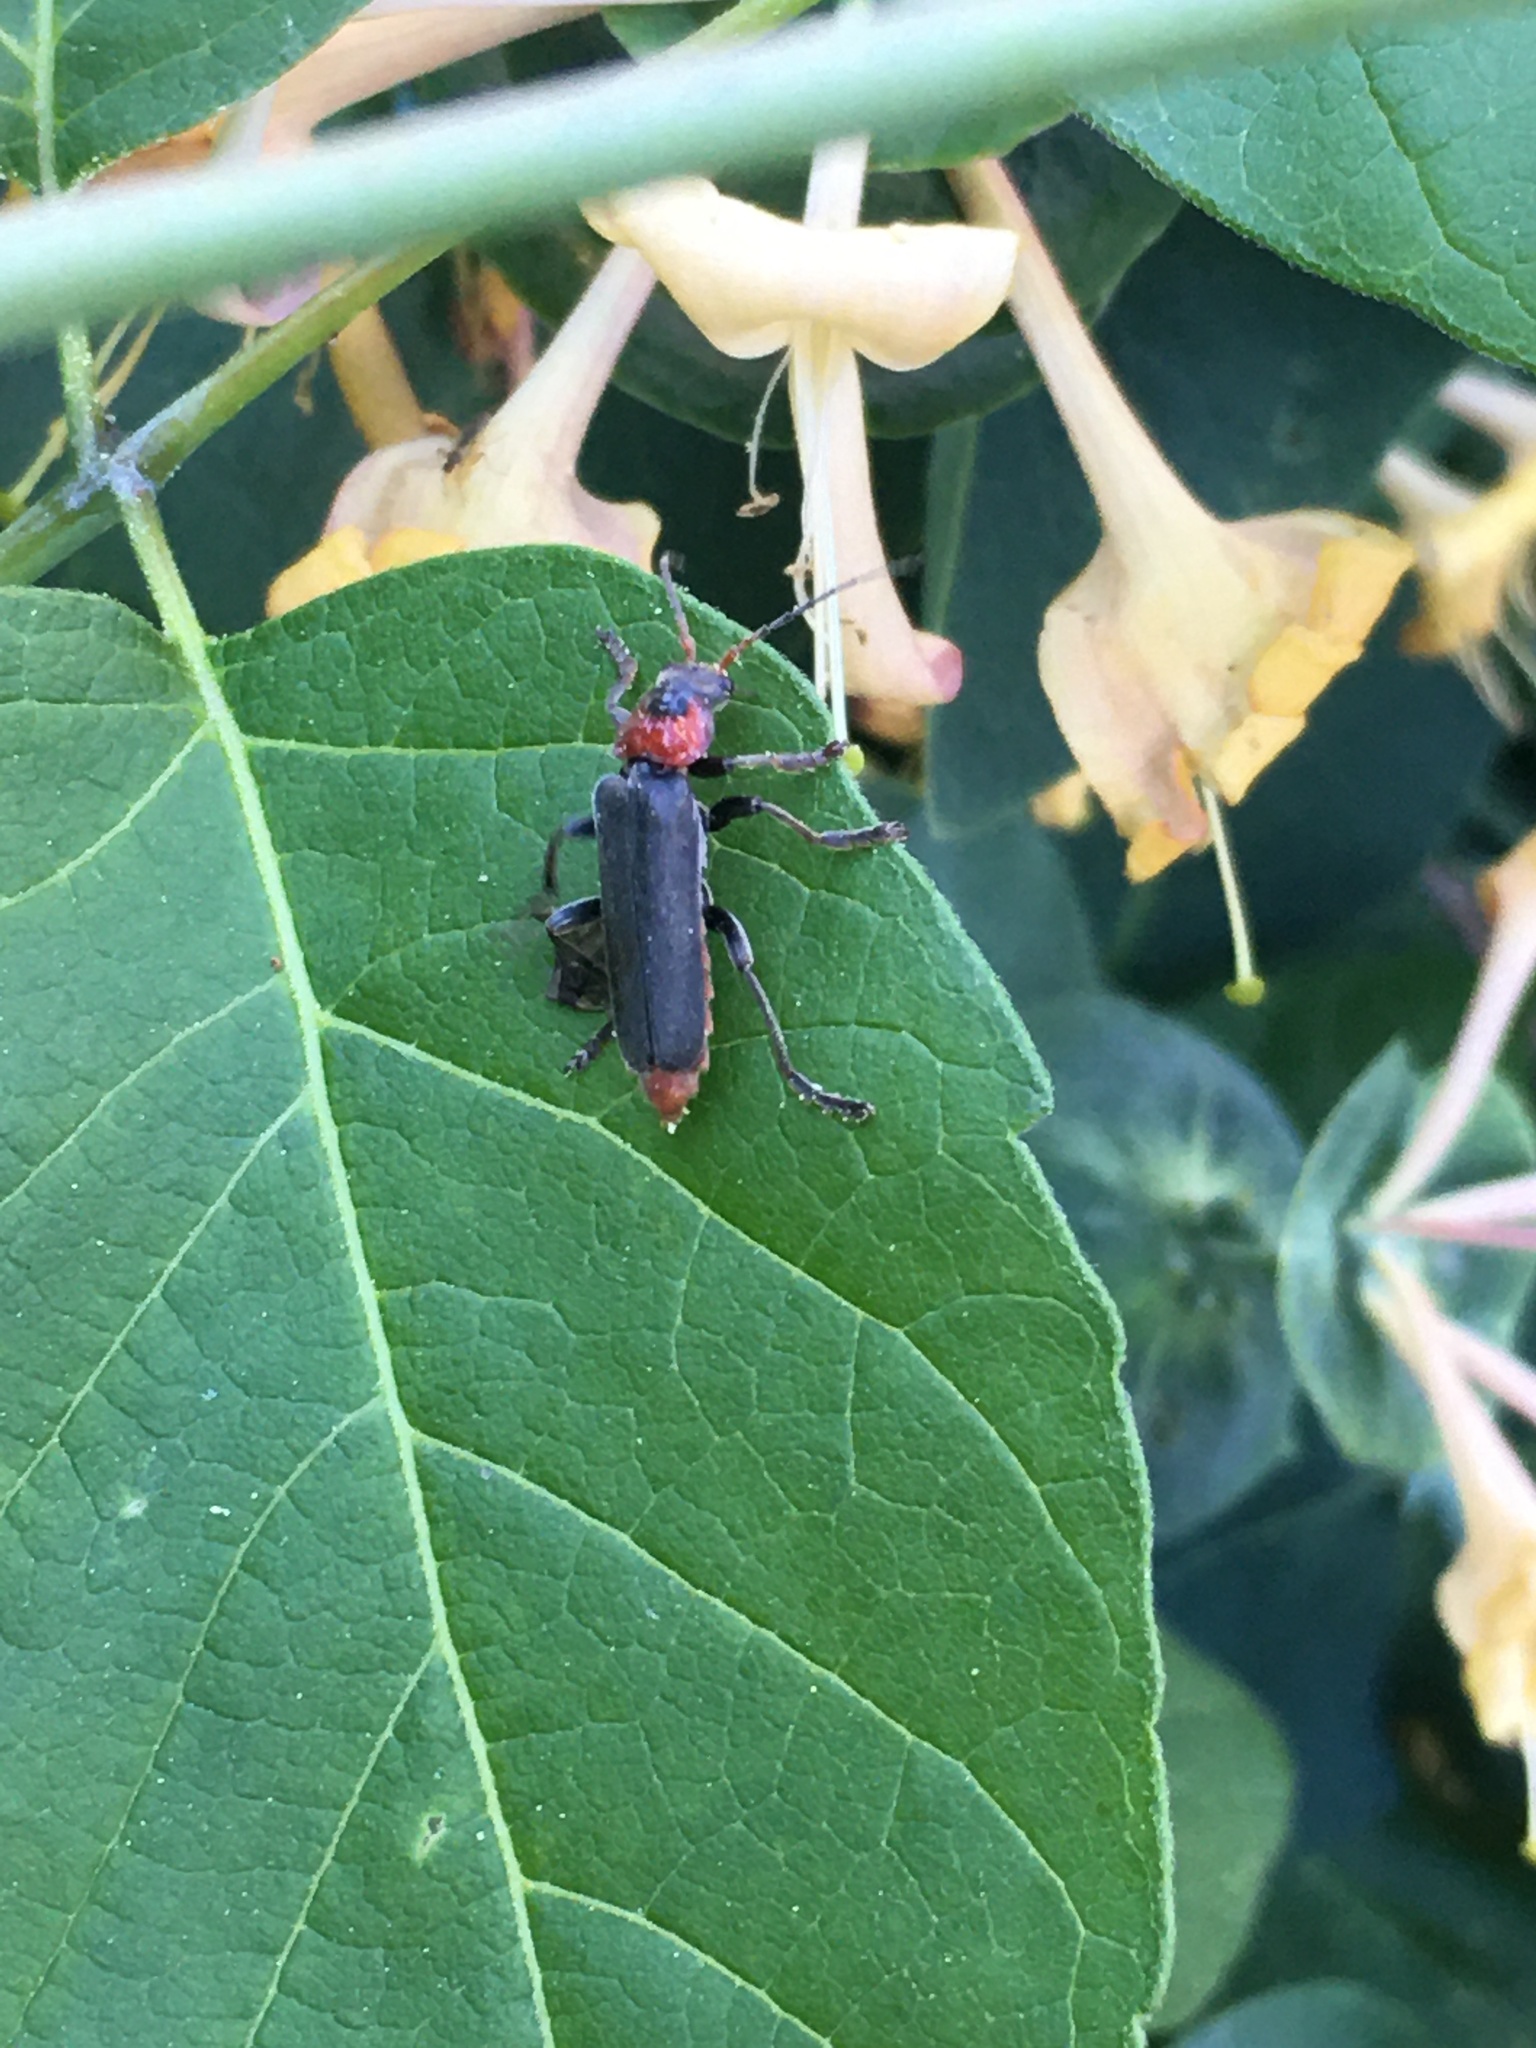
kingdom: Animalia
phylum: Arthropoda
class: Insecta
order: Coleoptera
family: Cantharidae
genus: Cantharis
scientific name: Cantharis fusca
